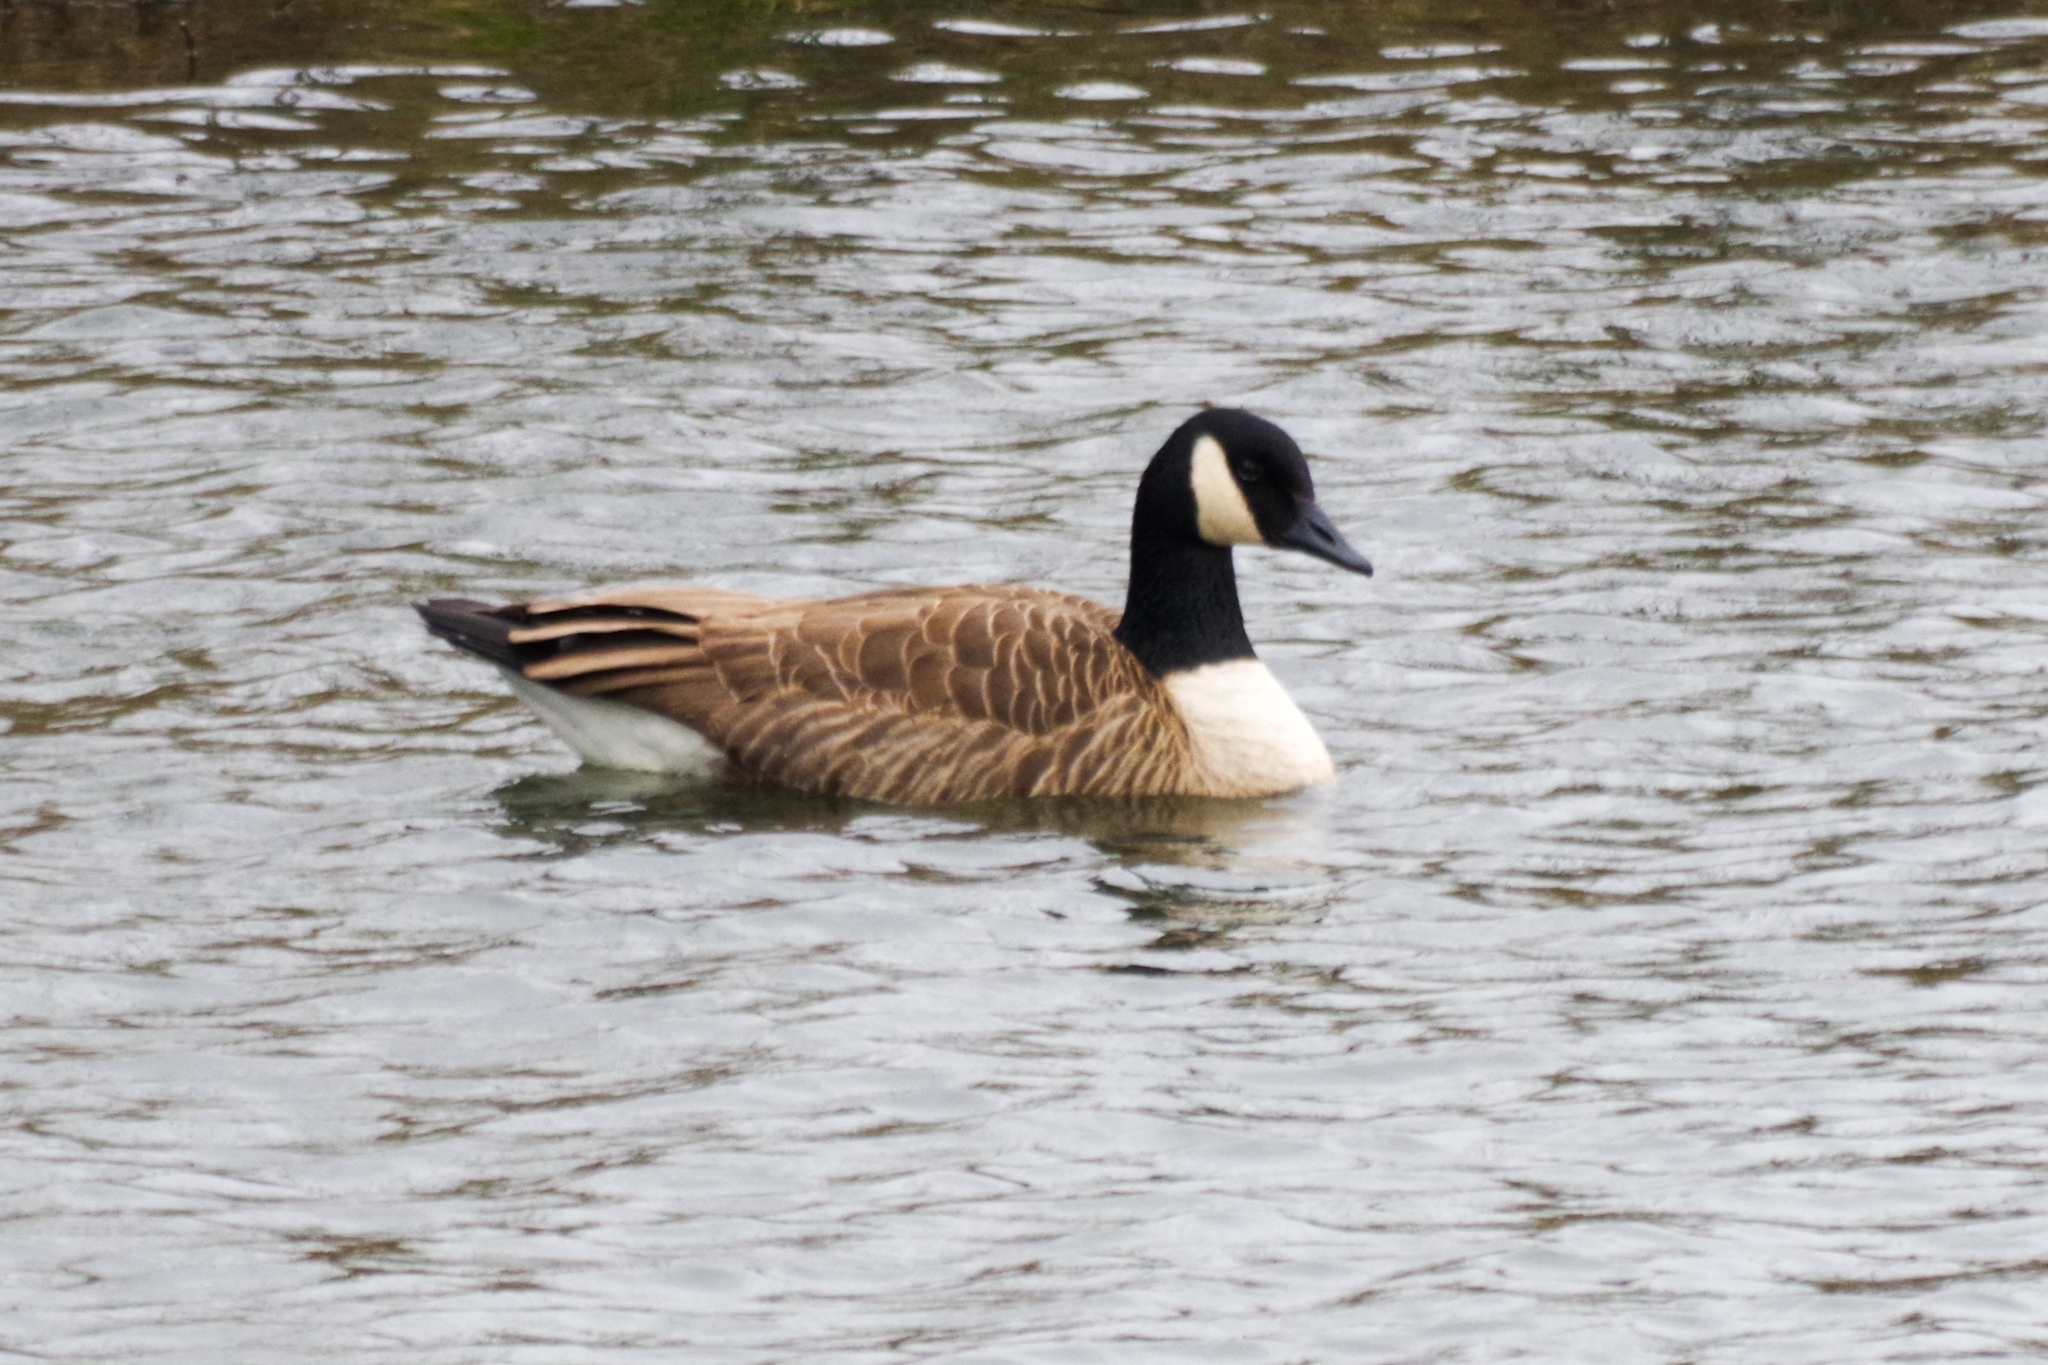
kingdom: Animalia
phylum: Chordata
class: Aves
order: Anseriformes
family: Anatidae
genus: Branta
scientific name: Branta canadensis
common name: Canada goose
